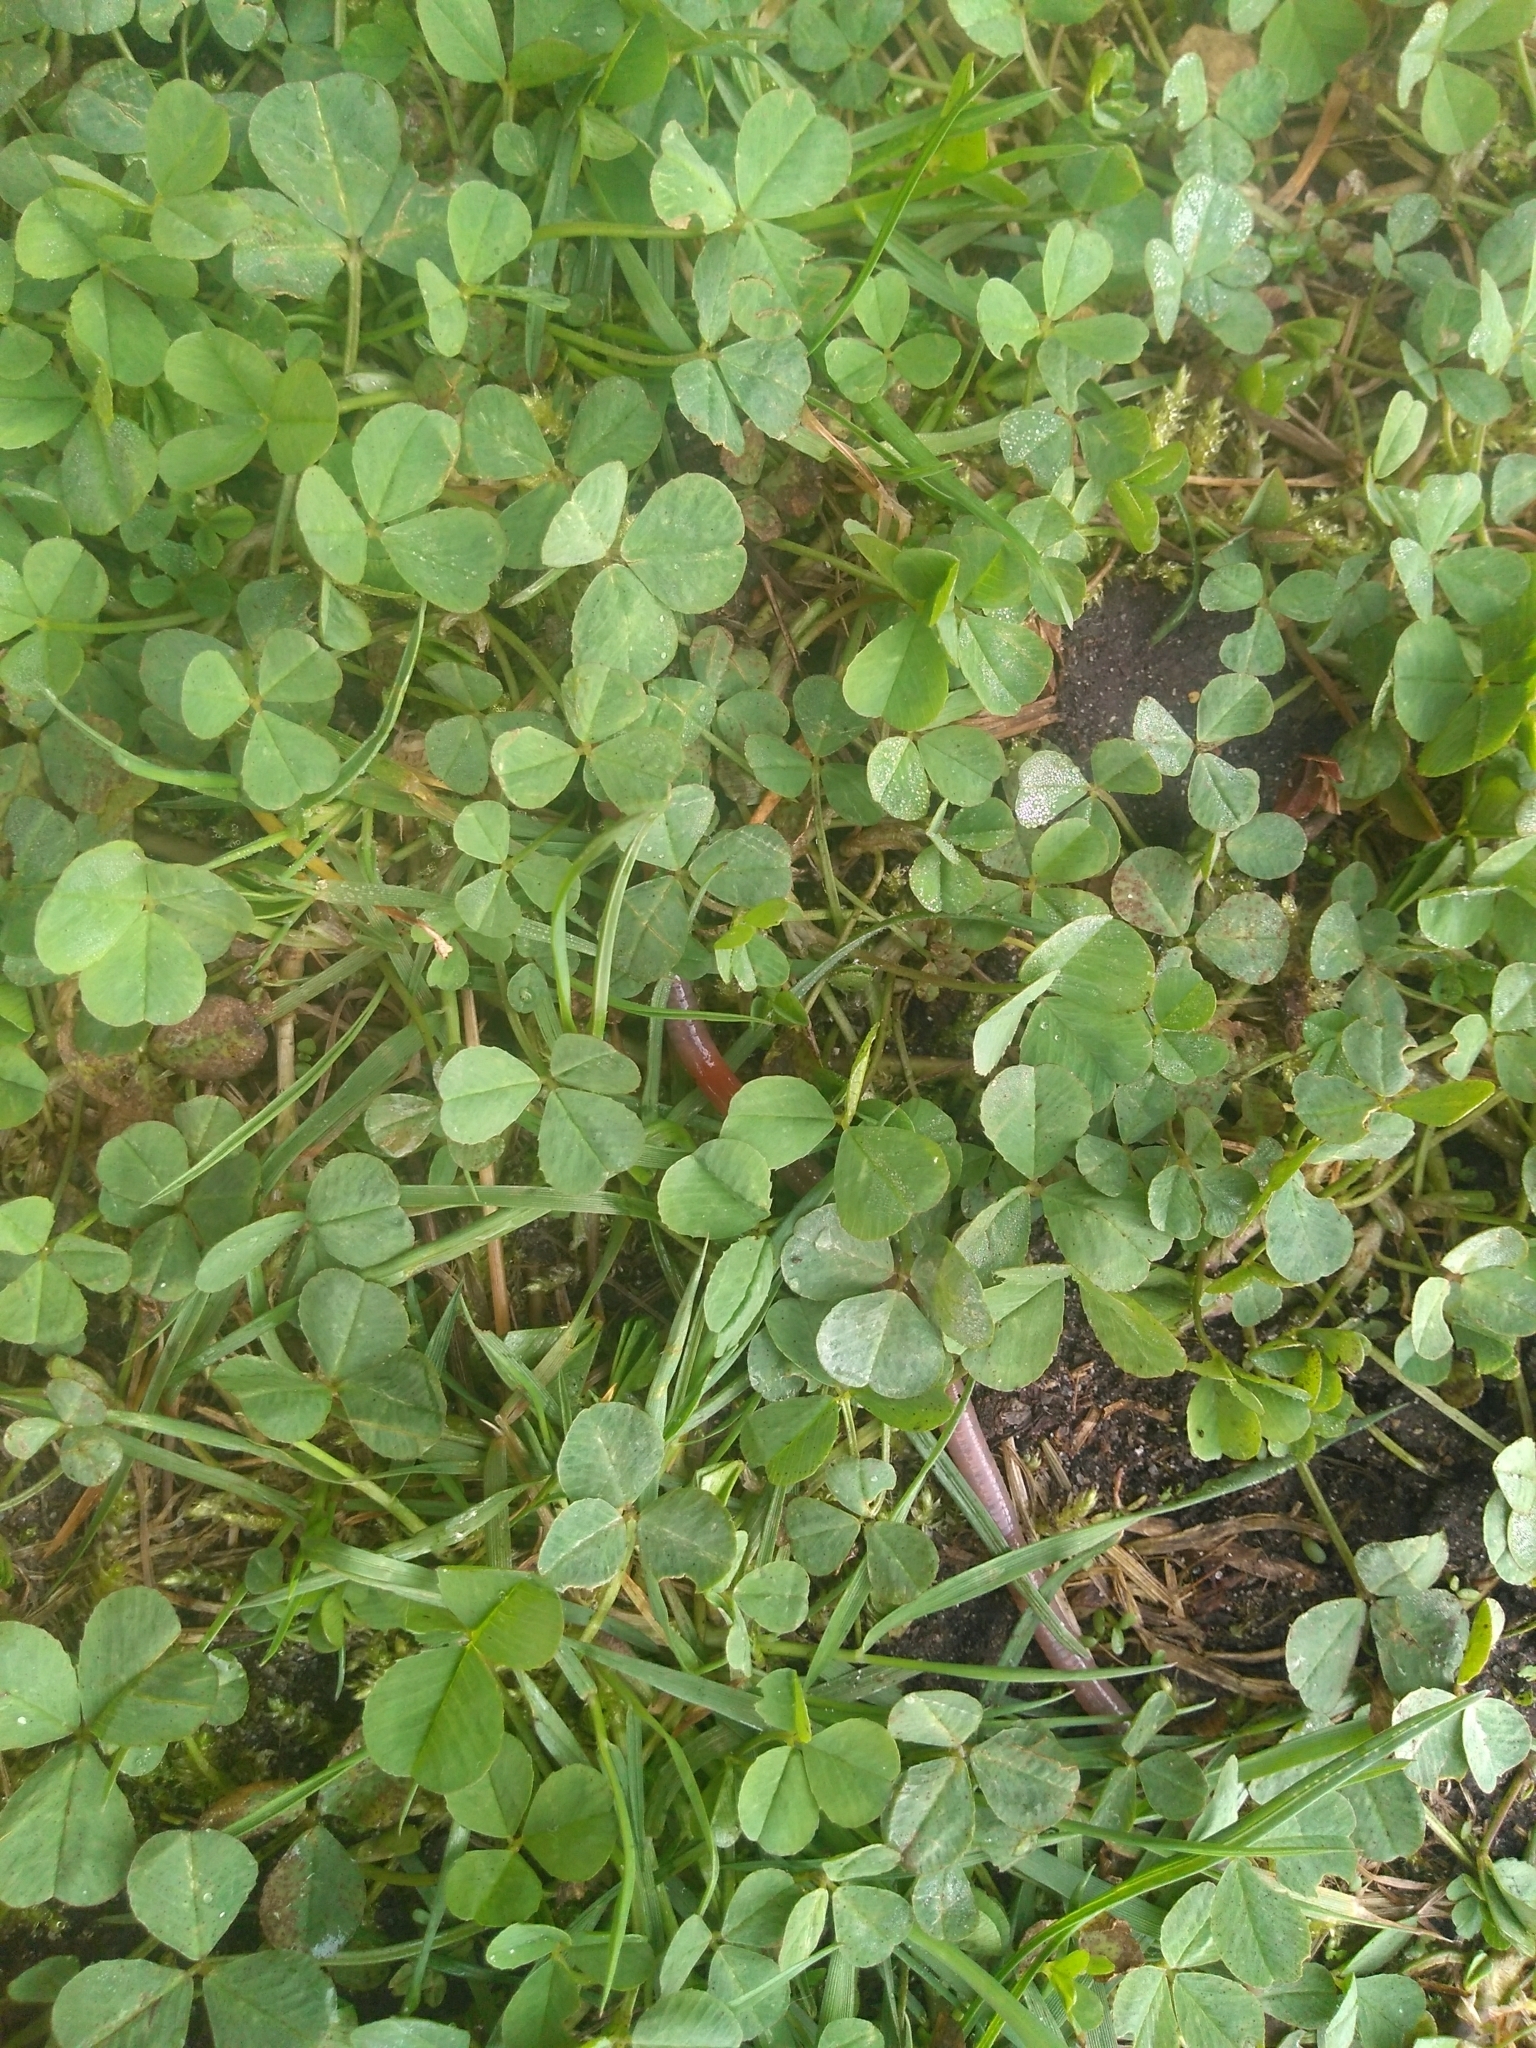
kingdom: Plantae
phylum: Tracheophyta
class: Magnoliopsida
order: Fabales
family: Fabaceae
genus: Trifolium
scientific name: Trifolium repens
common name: White clover
